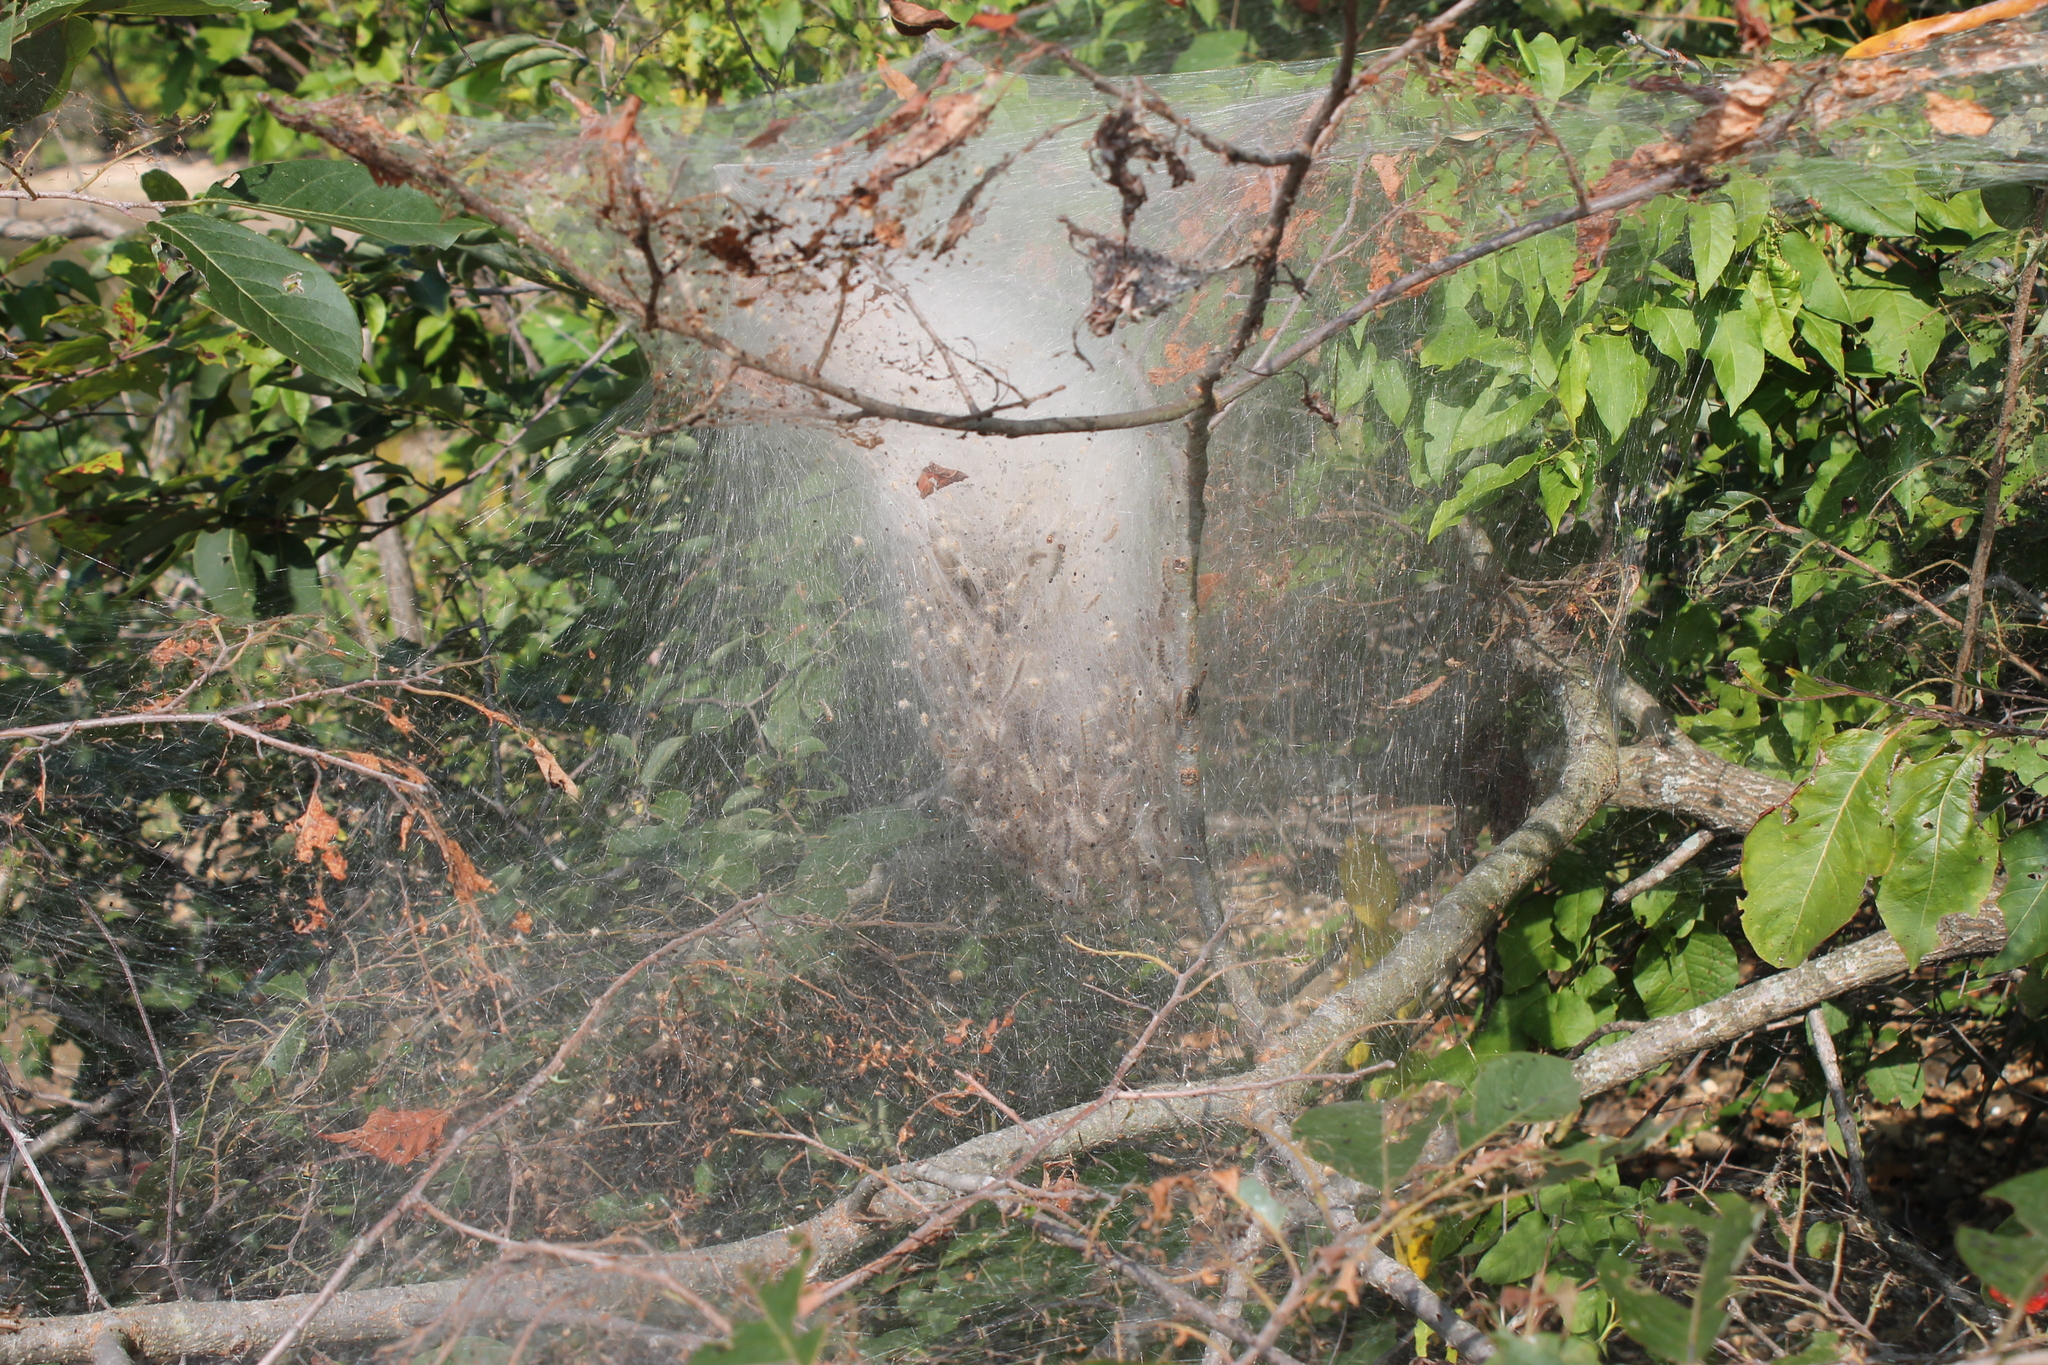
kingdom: Animalia
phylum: Arthropoda
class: Insecta
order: Lepidoptera
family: Erebidae
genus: Hyphantria
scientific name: Hyphantria cunea
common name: American white moth
